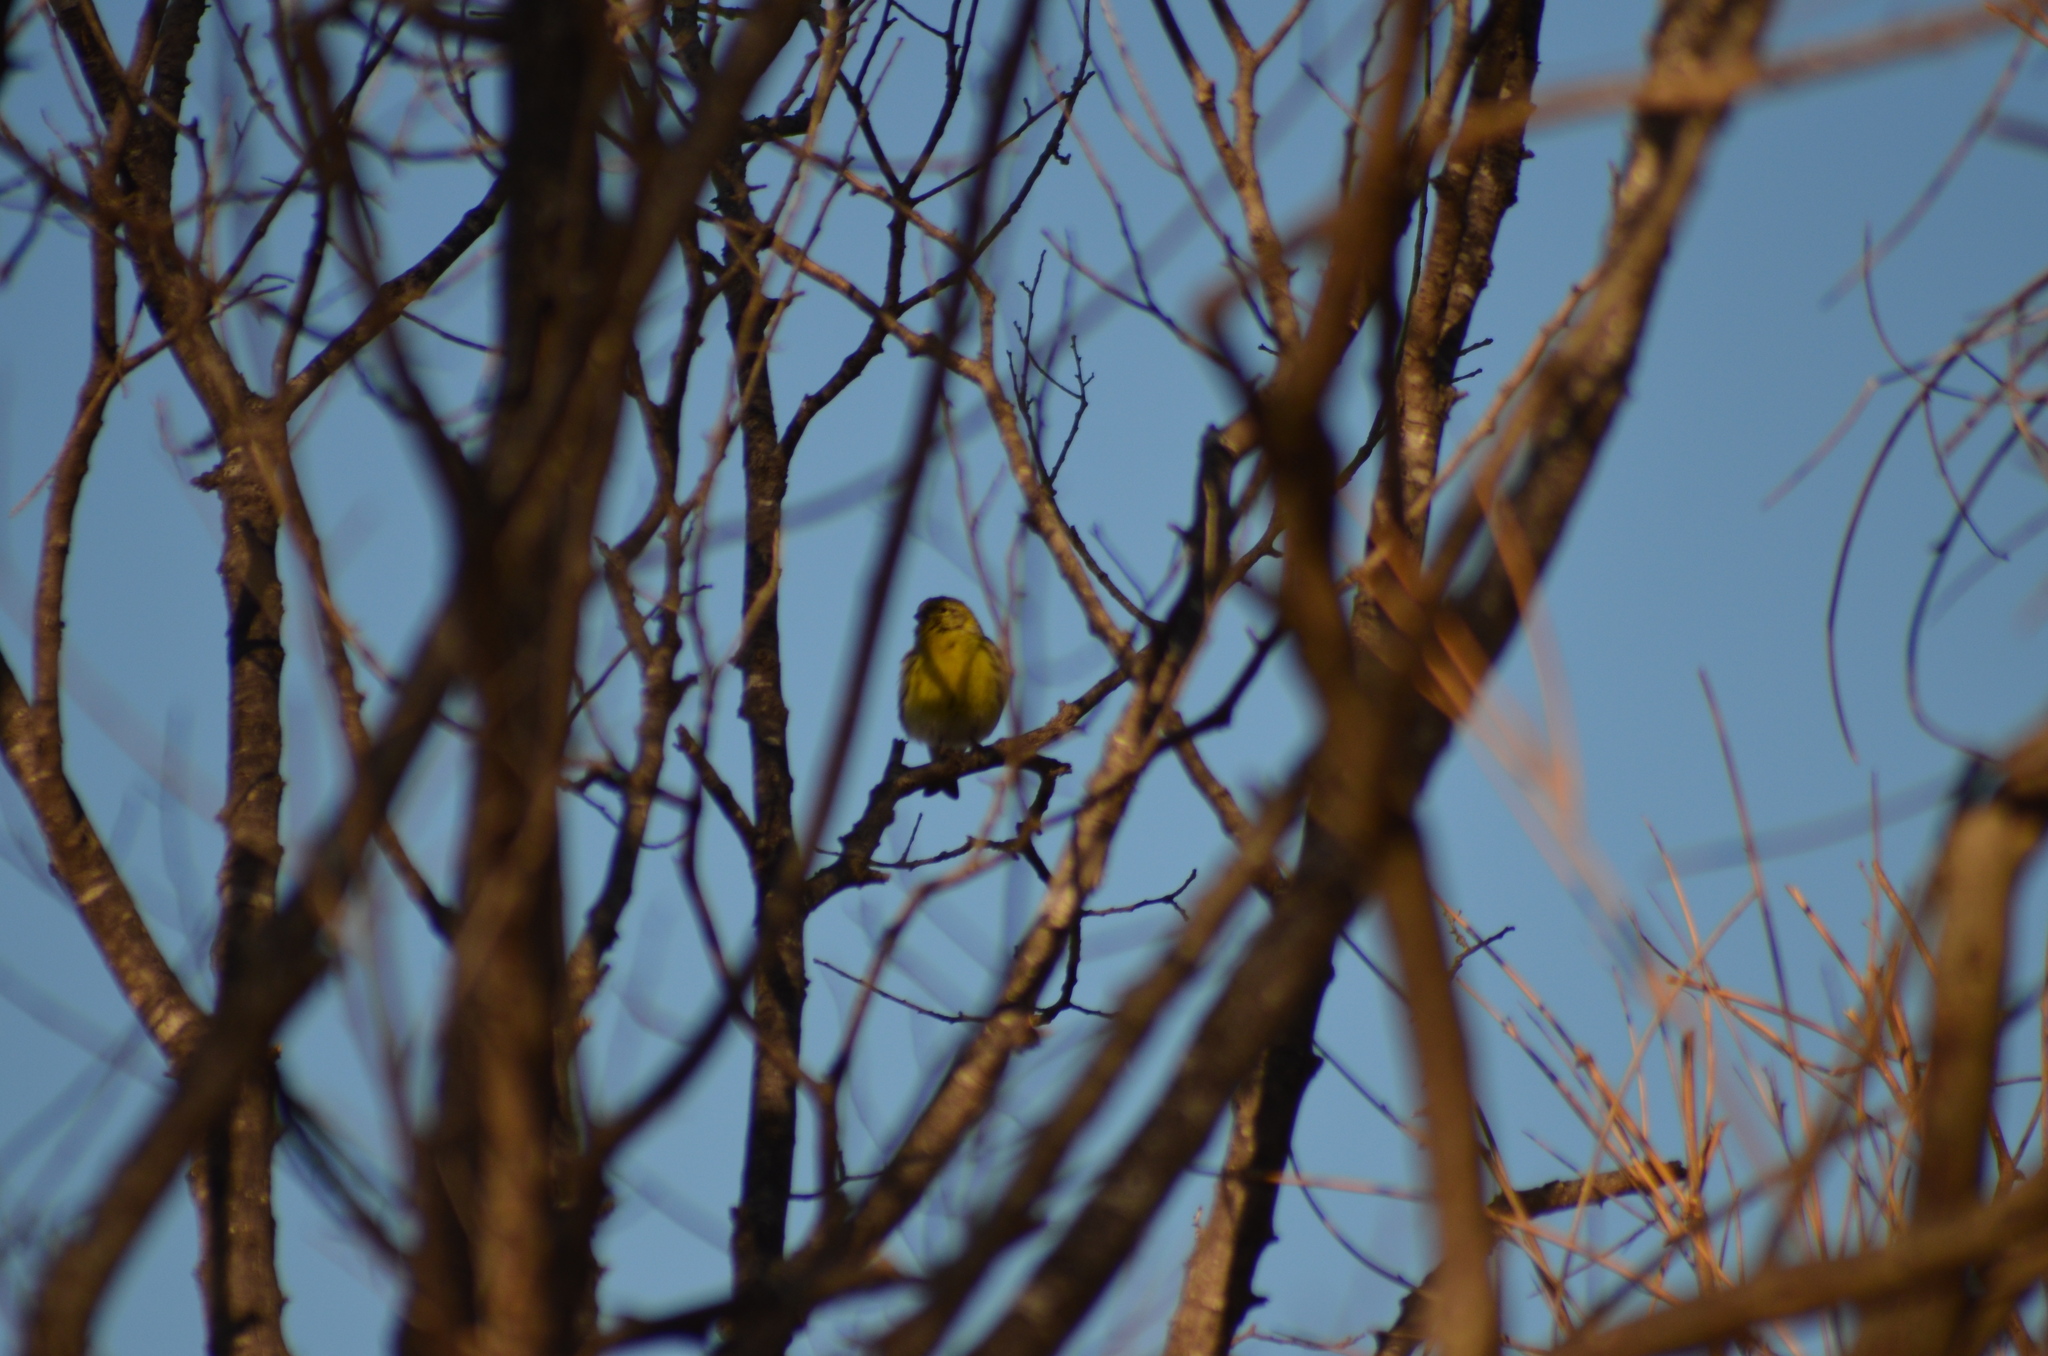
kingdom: Animalia
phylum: Chordata
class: Aves
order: Passeriformes
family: Fringillidae
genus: Serinus
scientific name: Serinus serinus
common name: European serin
